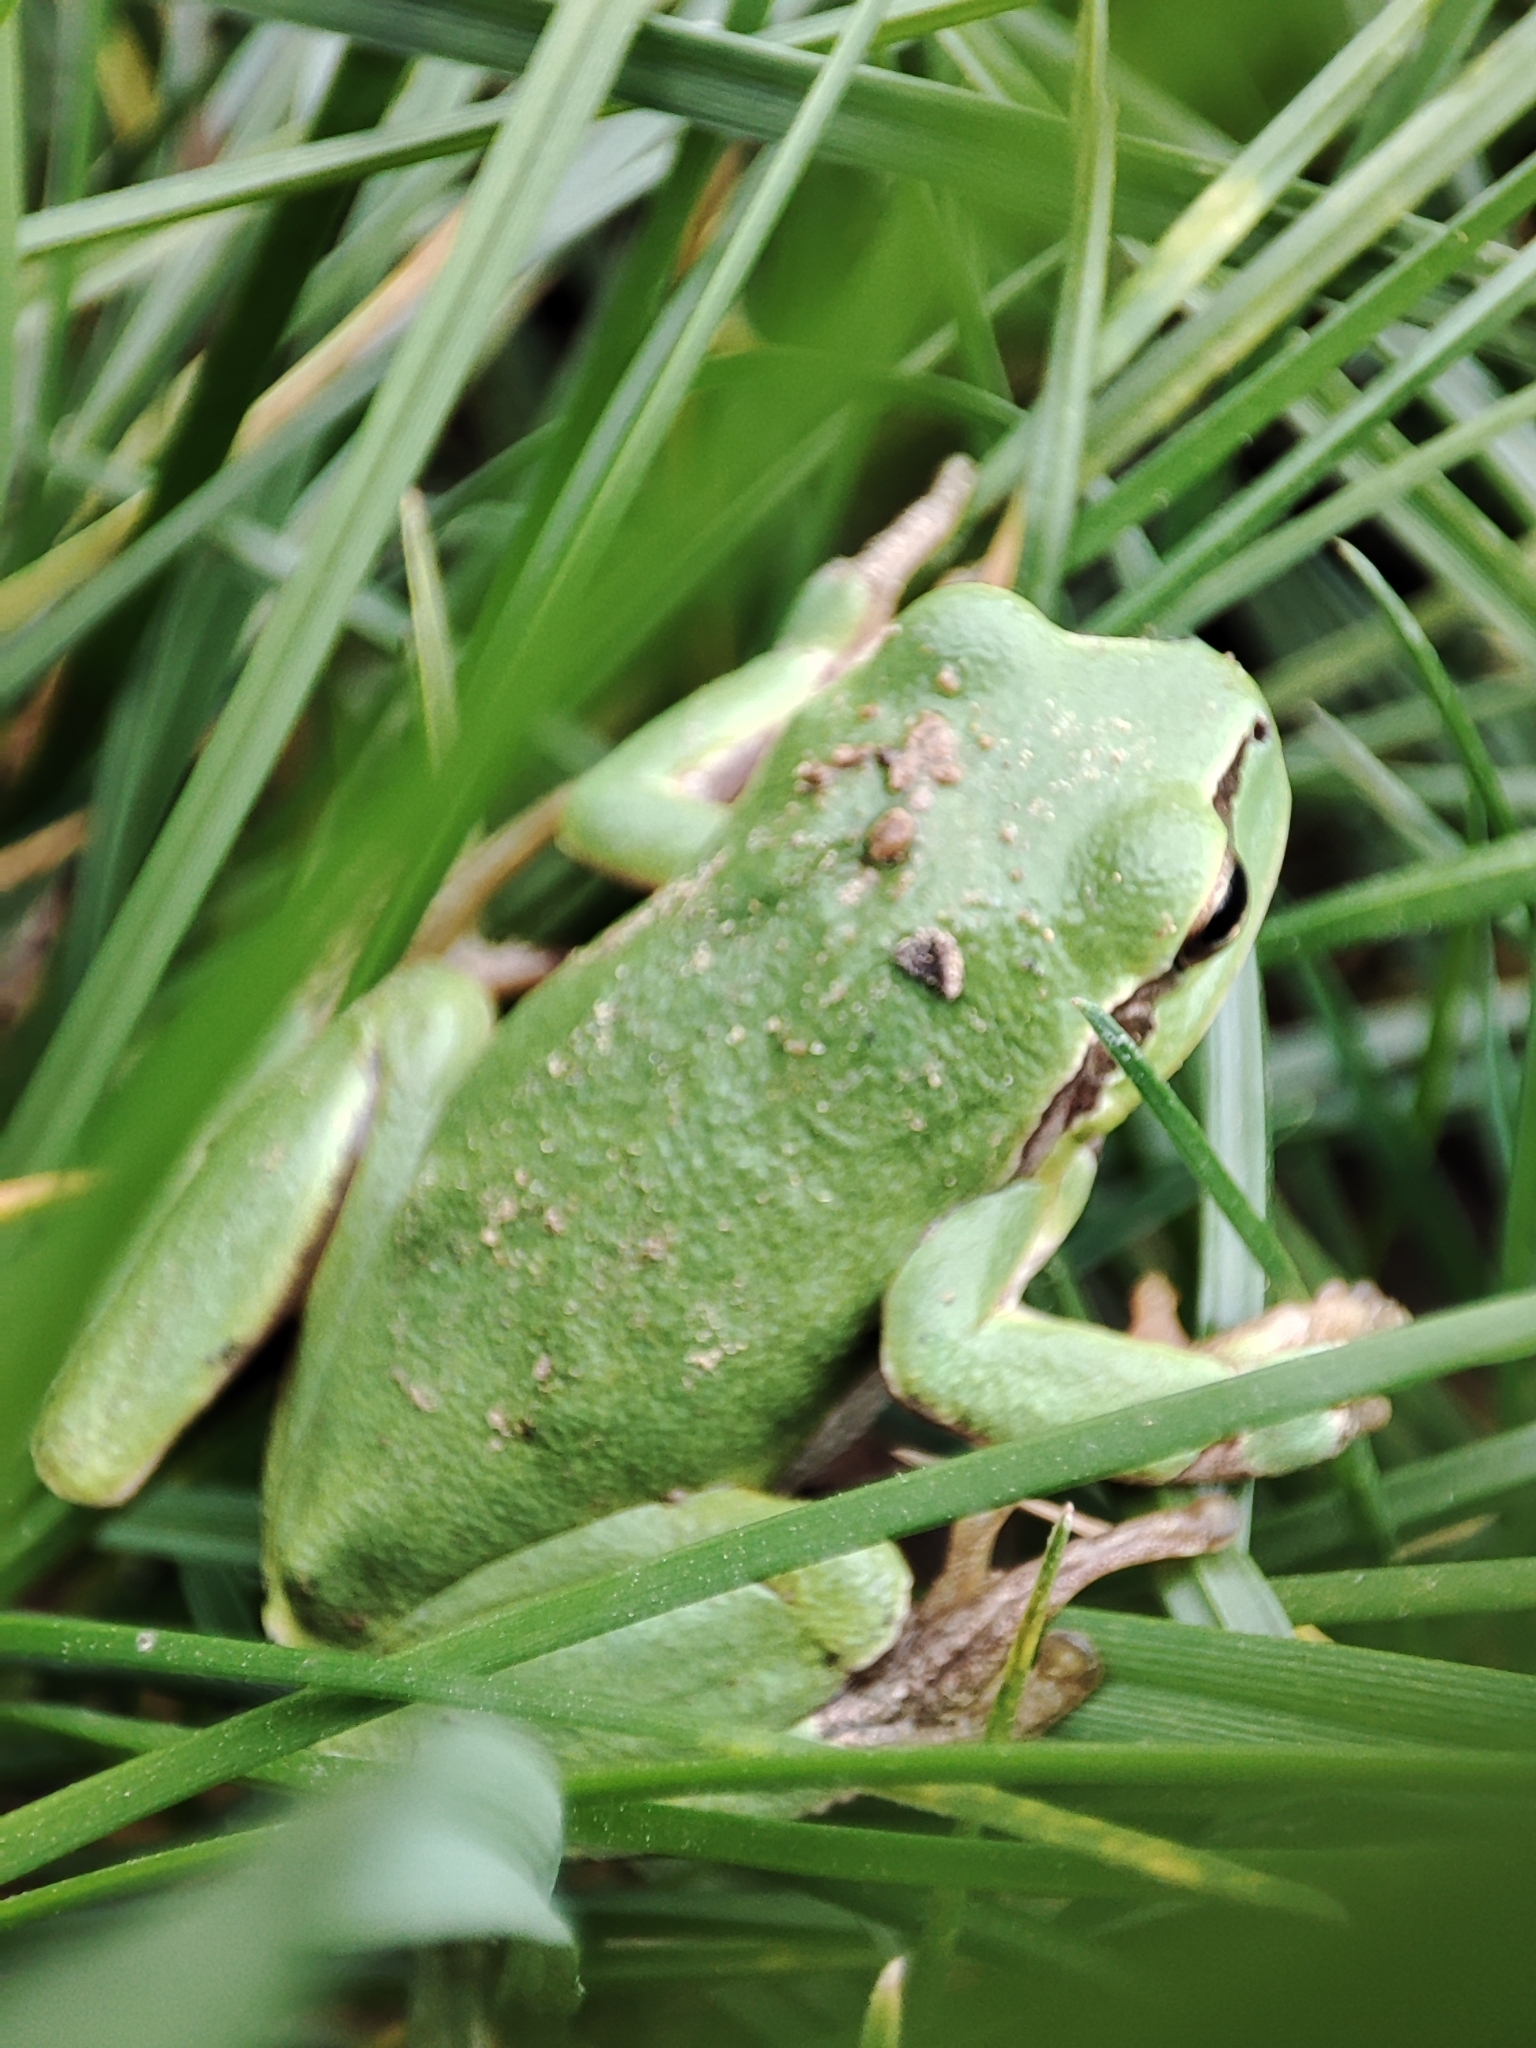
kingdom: Animalia
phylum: Chordata
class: Amphibia
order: Anura
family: Hylidae
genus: Hyla
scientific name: Hyla arborea
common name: Common tree frog
